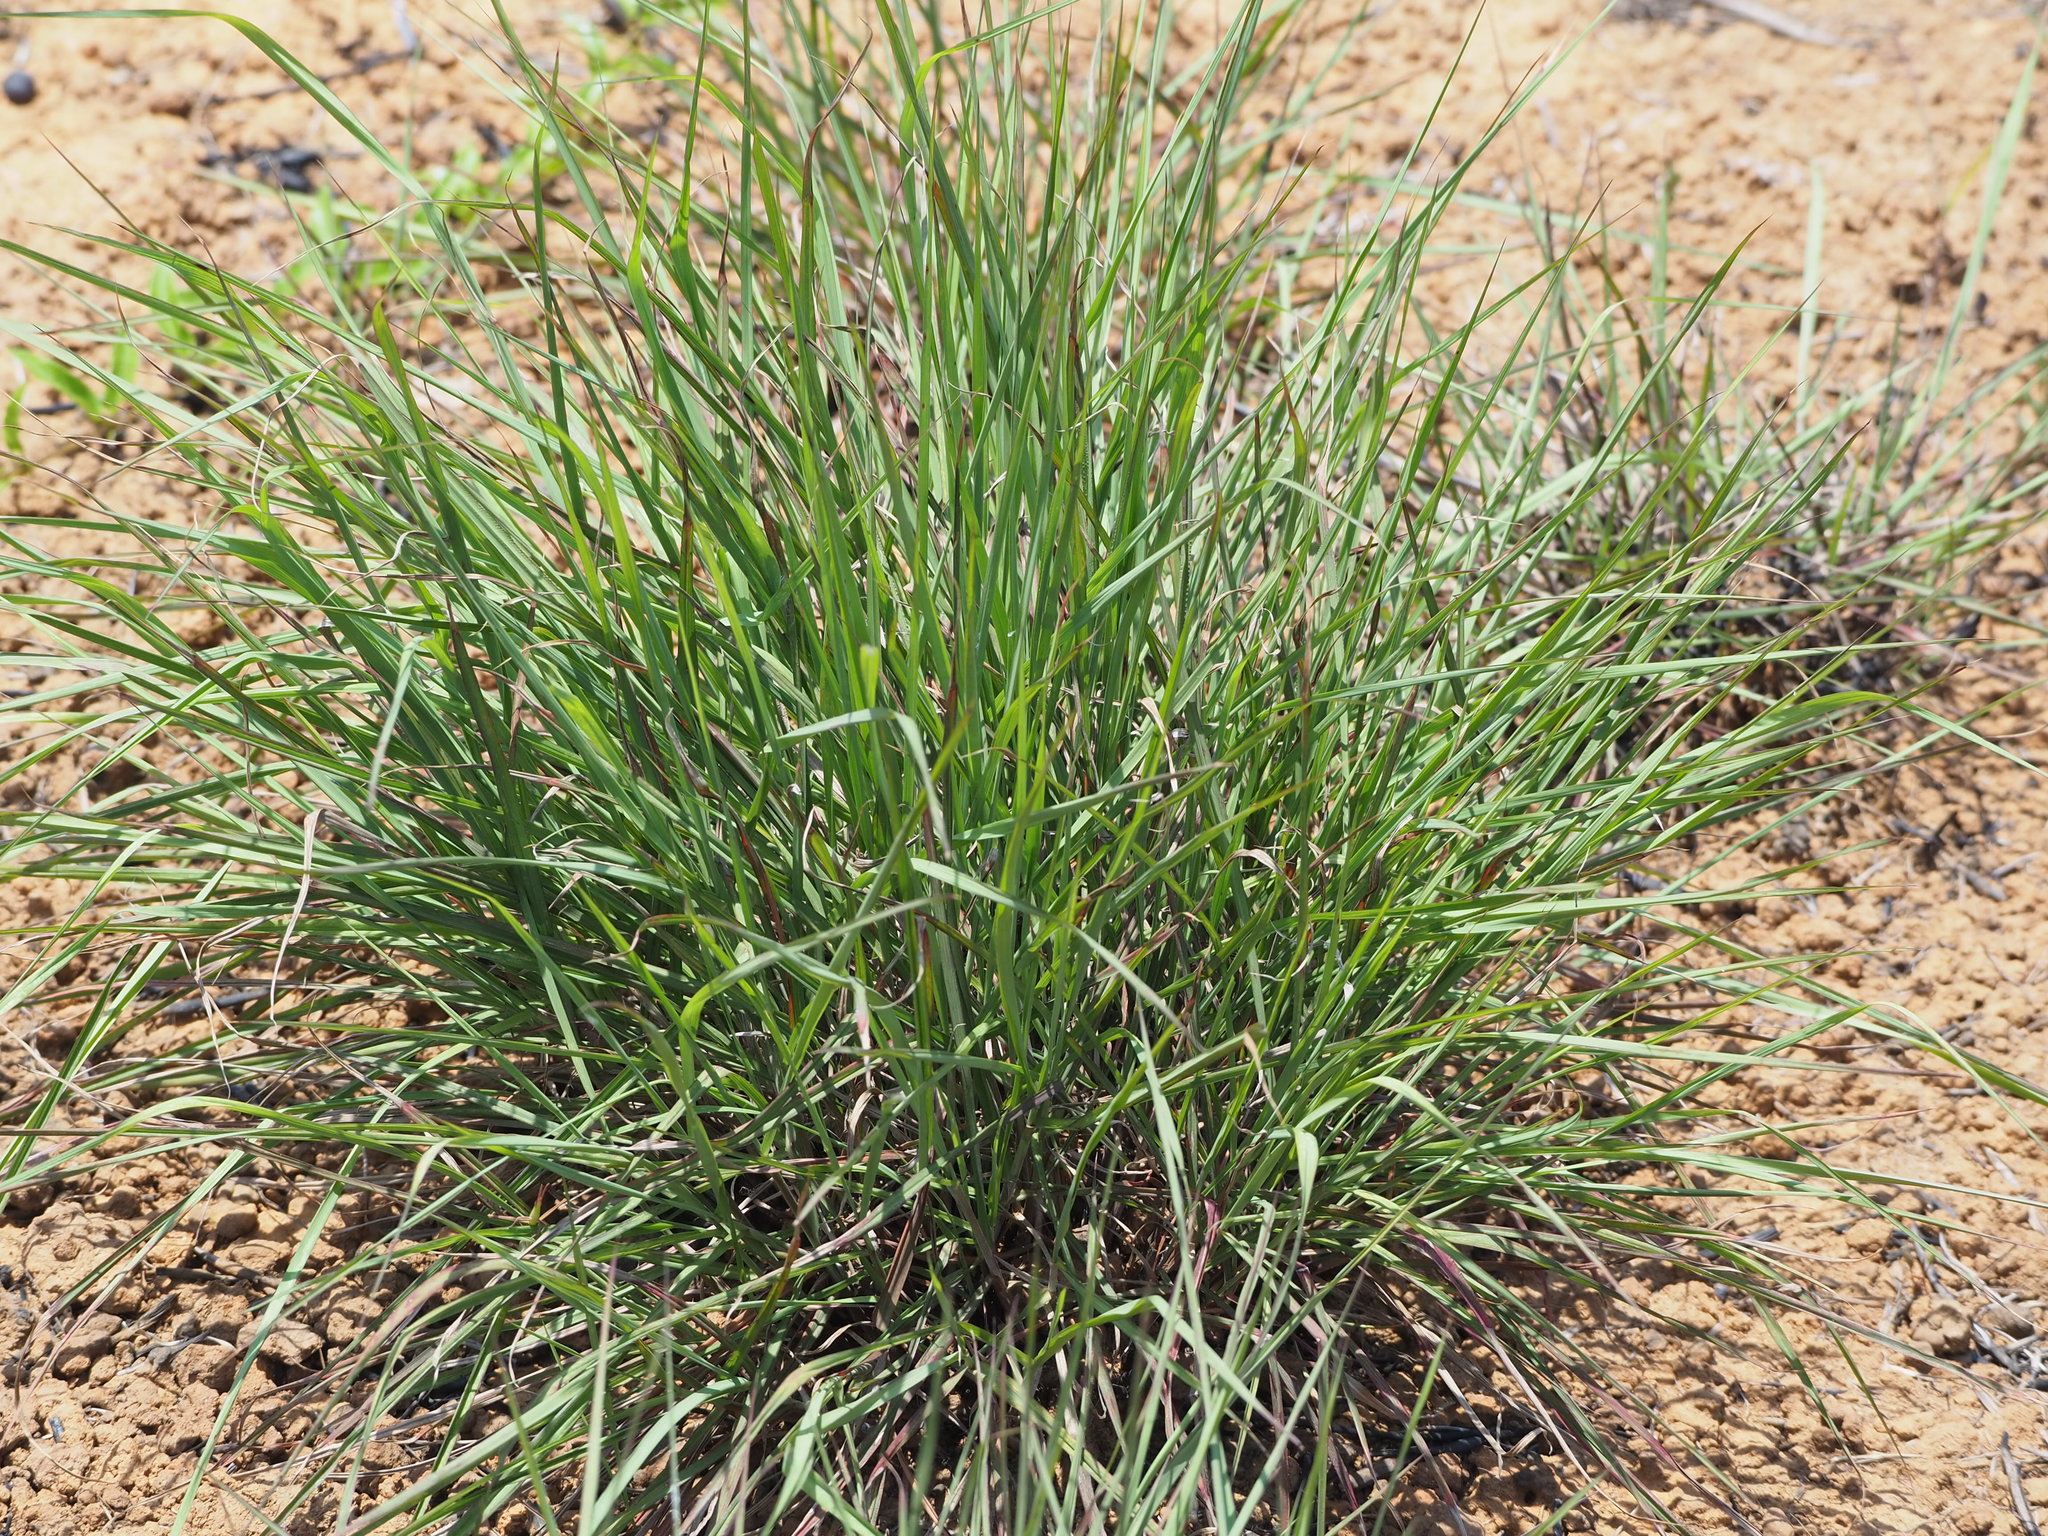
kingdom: Plantae
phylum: Tracheophyta
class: Liliopsida
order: Poales
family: Poaceae
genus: Megathyrsus
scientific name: Megathyrsus maximus
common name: Guineagrass
